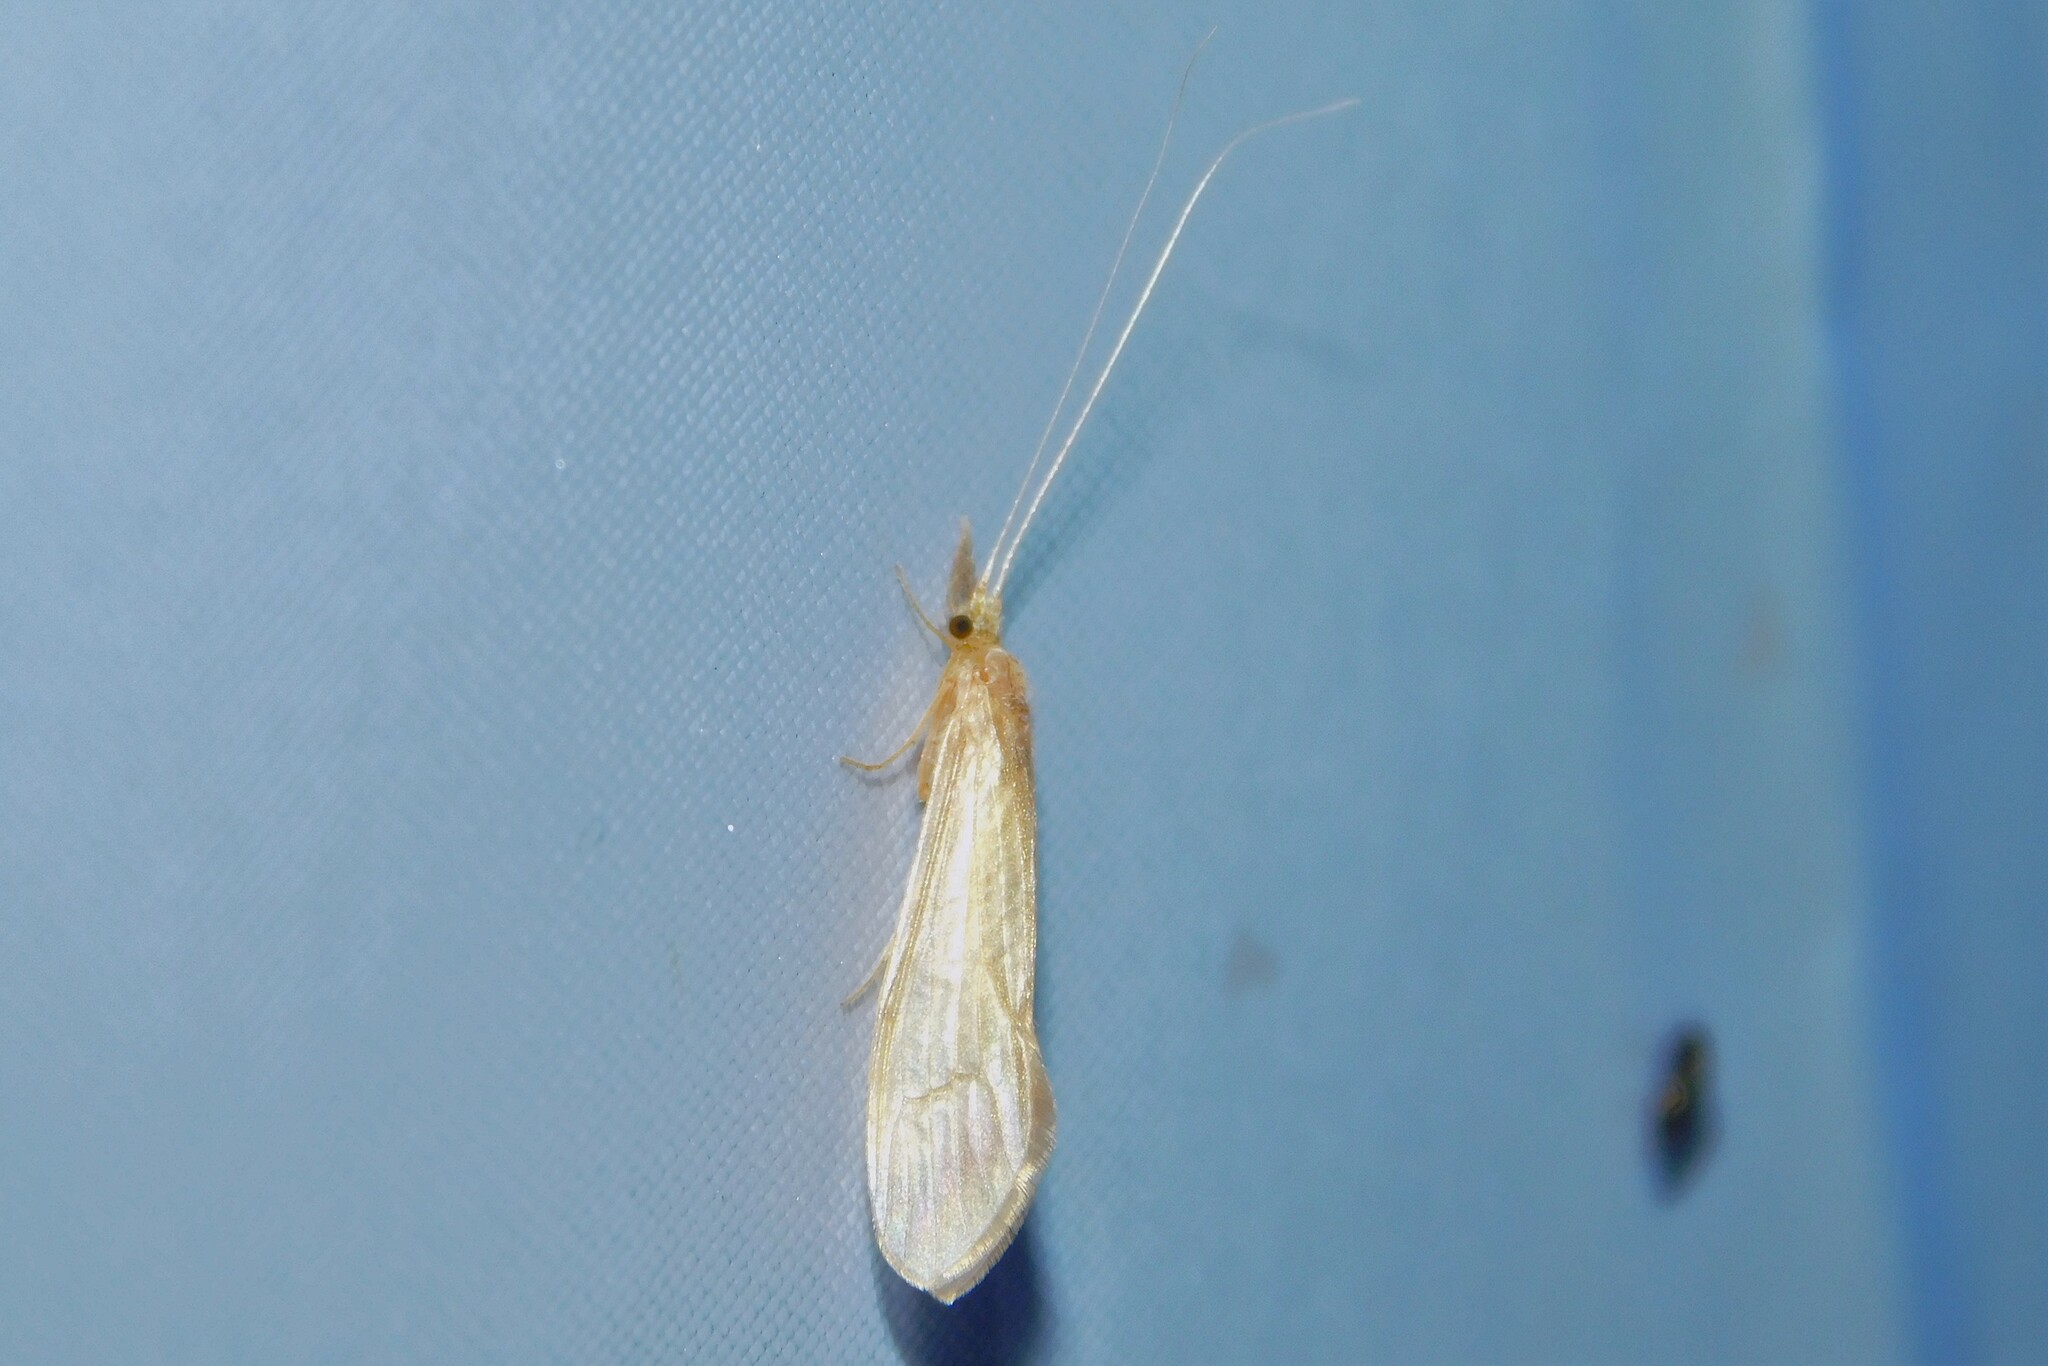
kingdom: Animalia
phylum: Arthropoda
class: Insecta
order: Trichoptera
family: Leptoceridae
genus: Oecetis
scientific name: Oecetis ochracea
